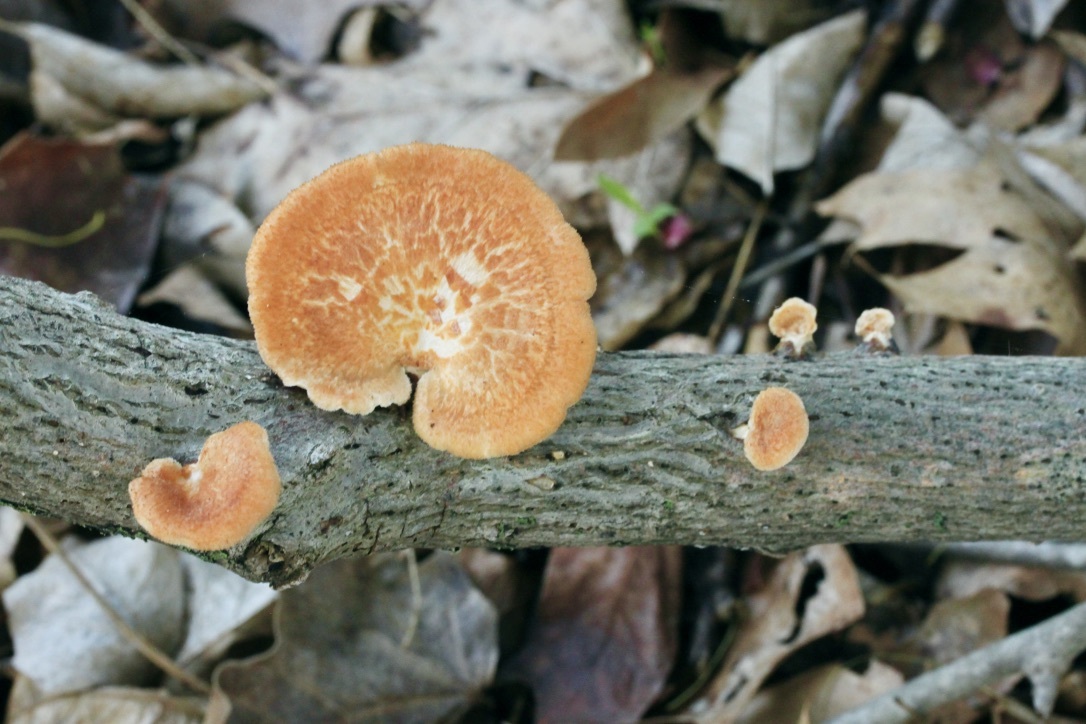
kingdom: Fungi
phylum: Basidiomycota
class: Agaricomycetes
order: Polyporales
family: Polyporaceae
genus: Neofavolus
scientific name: Neofavolus alveolaris
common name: Hexagonal-pored polypore
